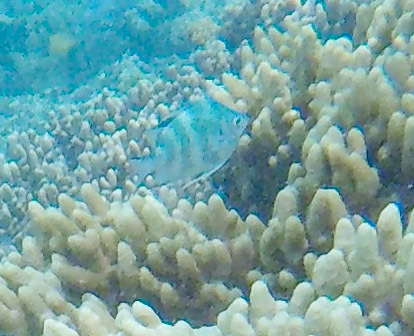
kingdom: Animalia
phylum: Chordata
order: Perciformes
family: Pomacentridae
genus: Amblyglyphidodon
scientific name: Amblyglyphidodon curacao
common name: Staghorn damsel
